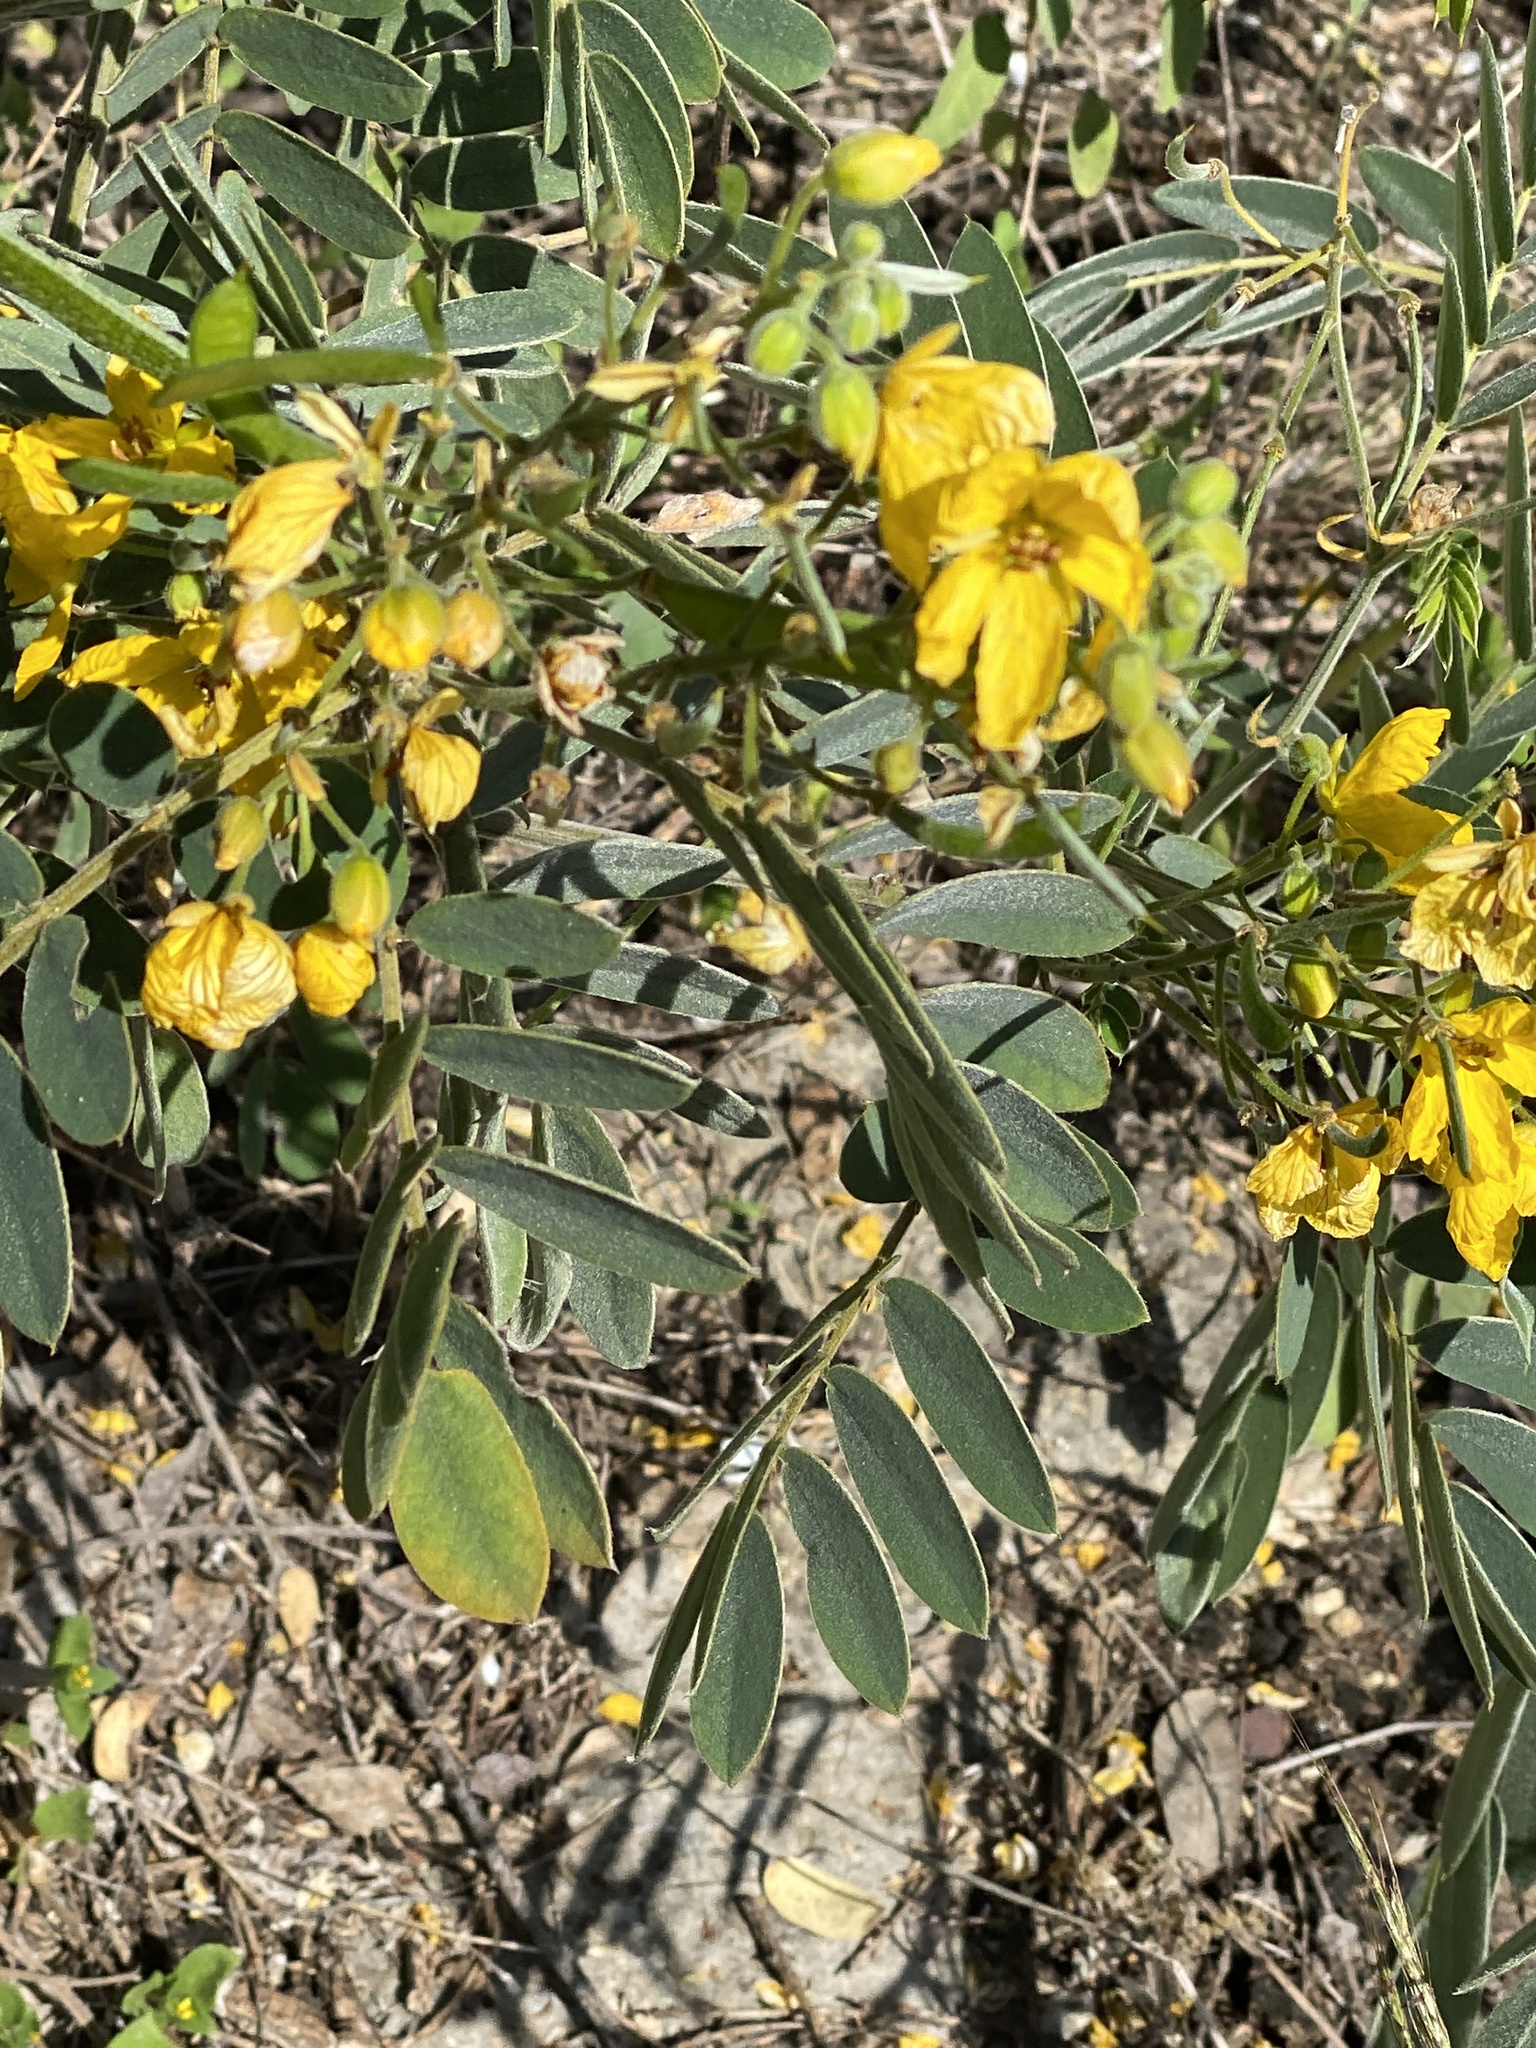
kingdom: Plantae
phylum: Tracheophyta
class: Magnoliopsida
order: Fabales
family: Fabaceae
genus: Senna
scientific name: Senna lindheimeriana
